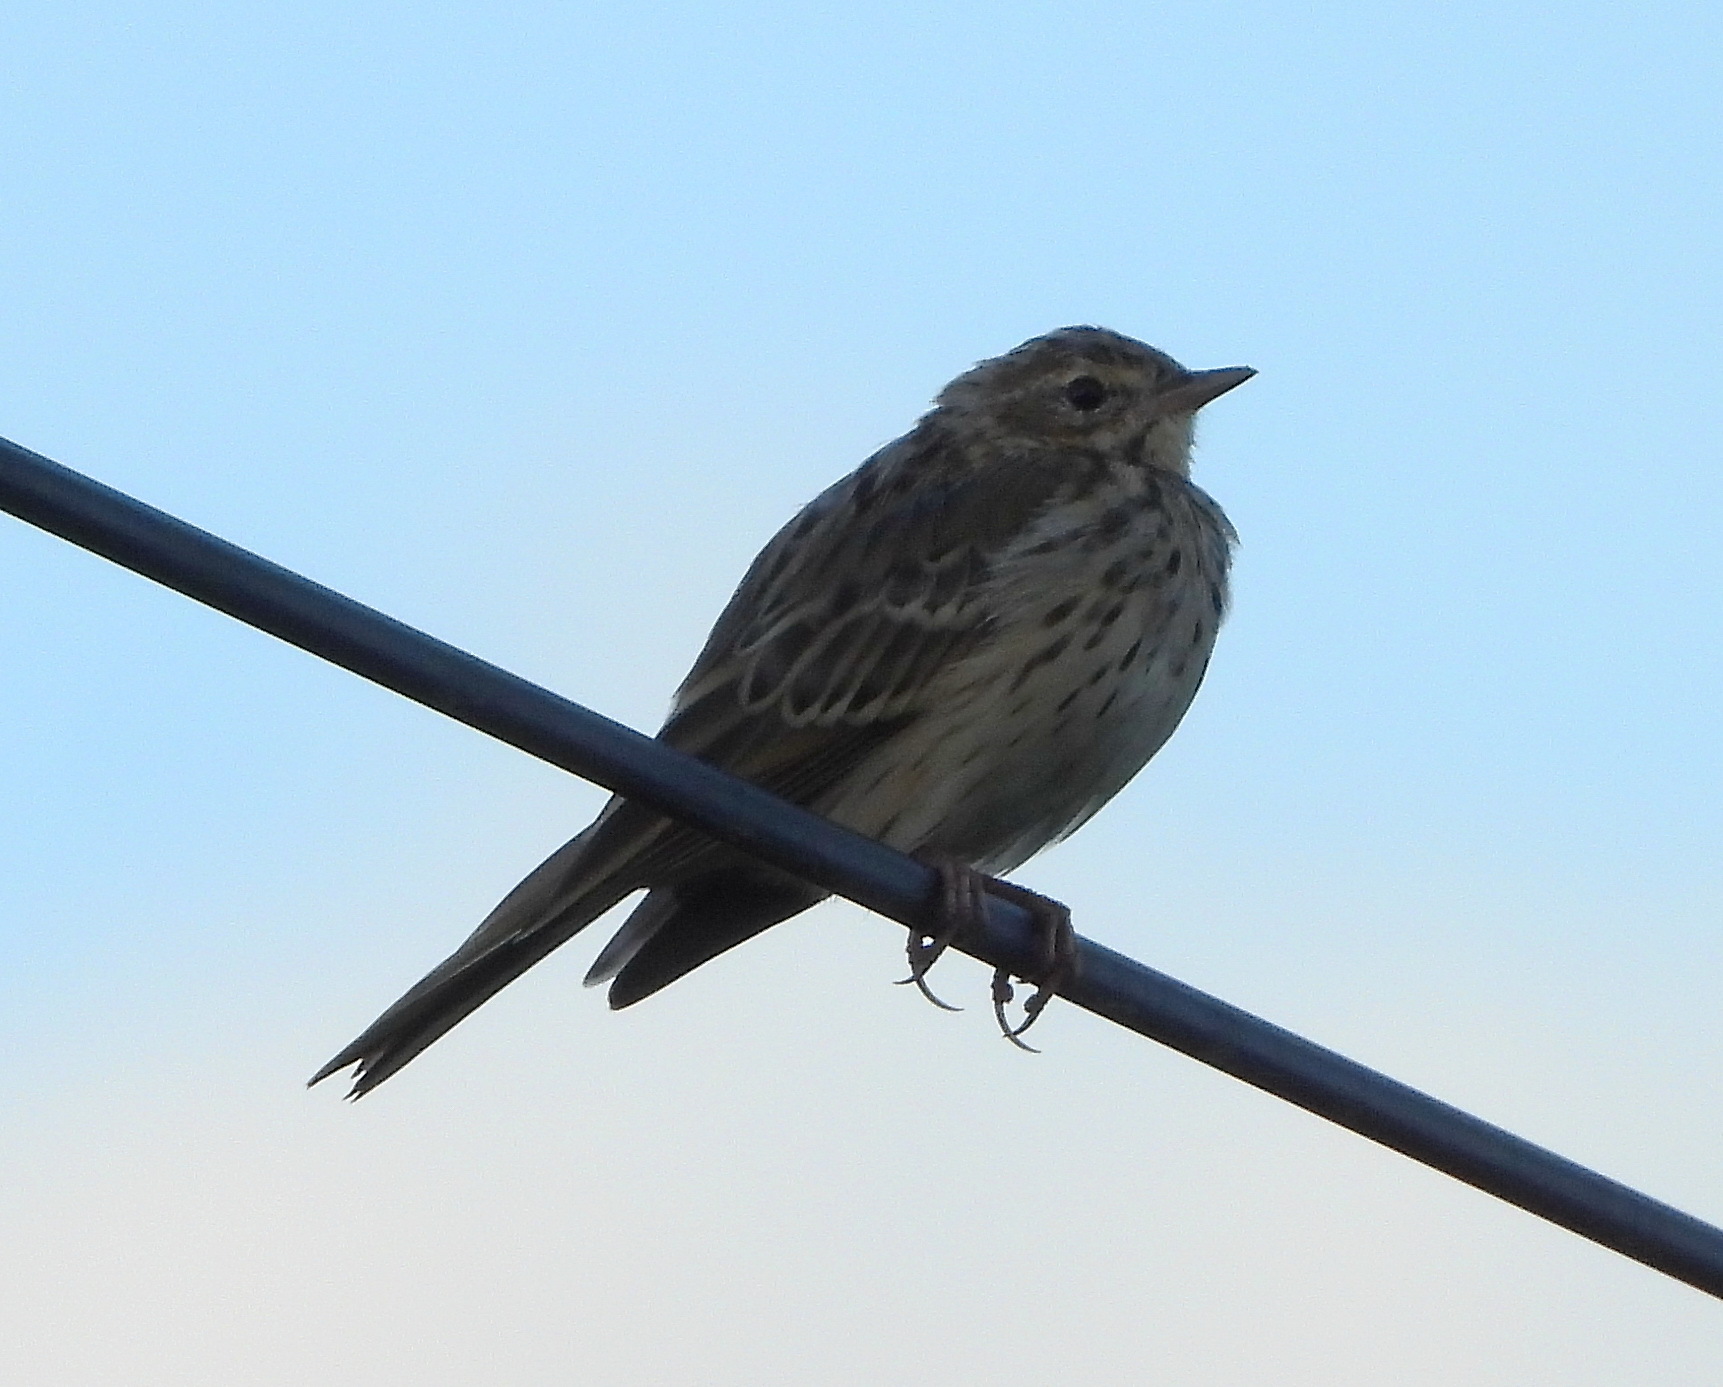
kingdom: Animalia
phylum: Chordata
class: Aves
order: Passeriformes
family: Motacillidae
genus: Anthus
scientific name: Anthus trivialis
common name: Tree pipit
